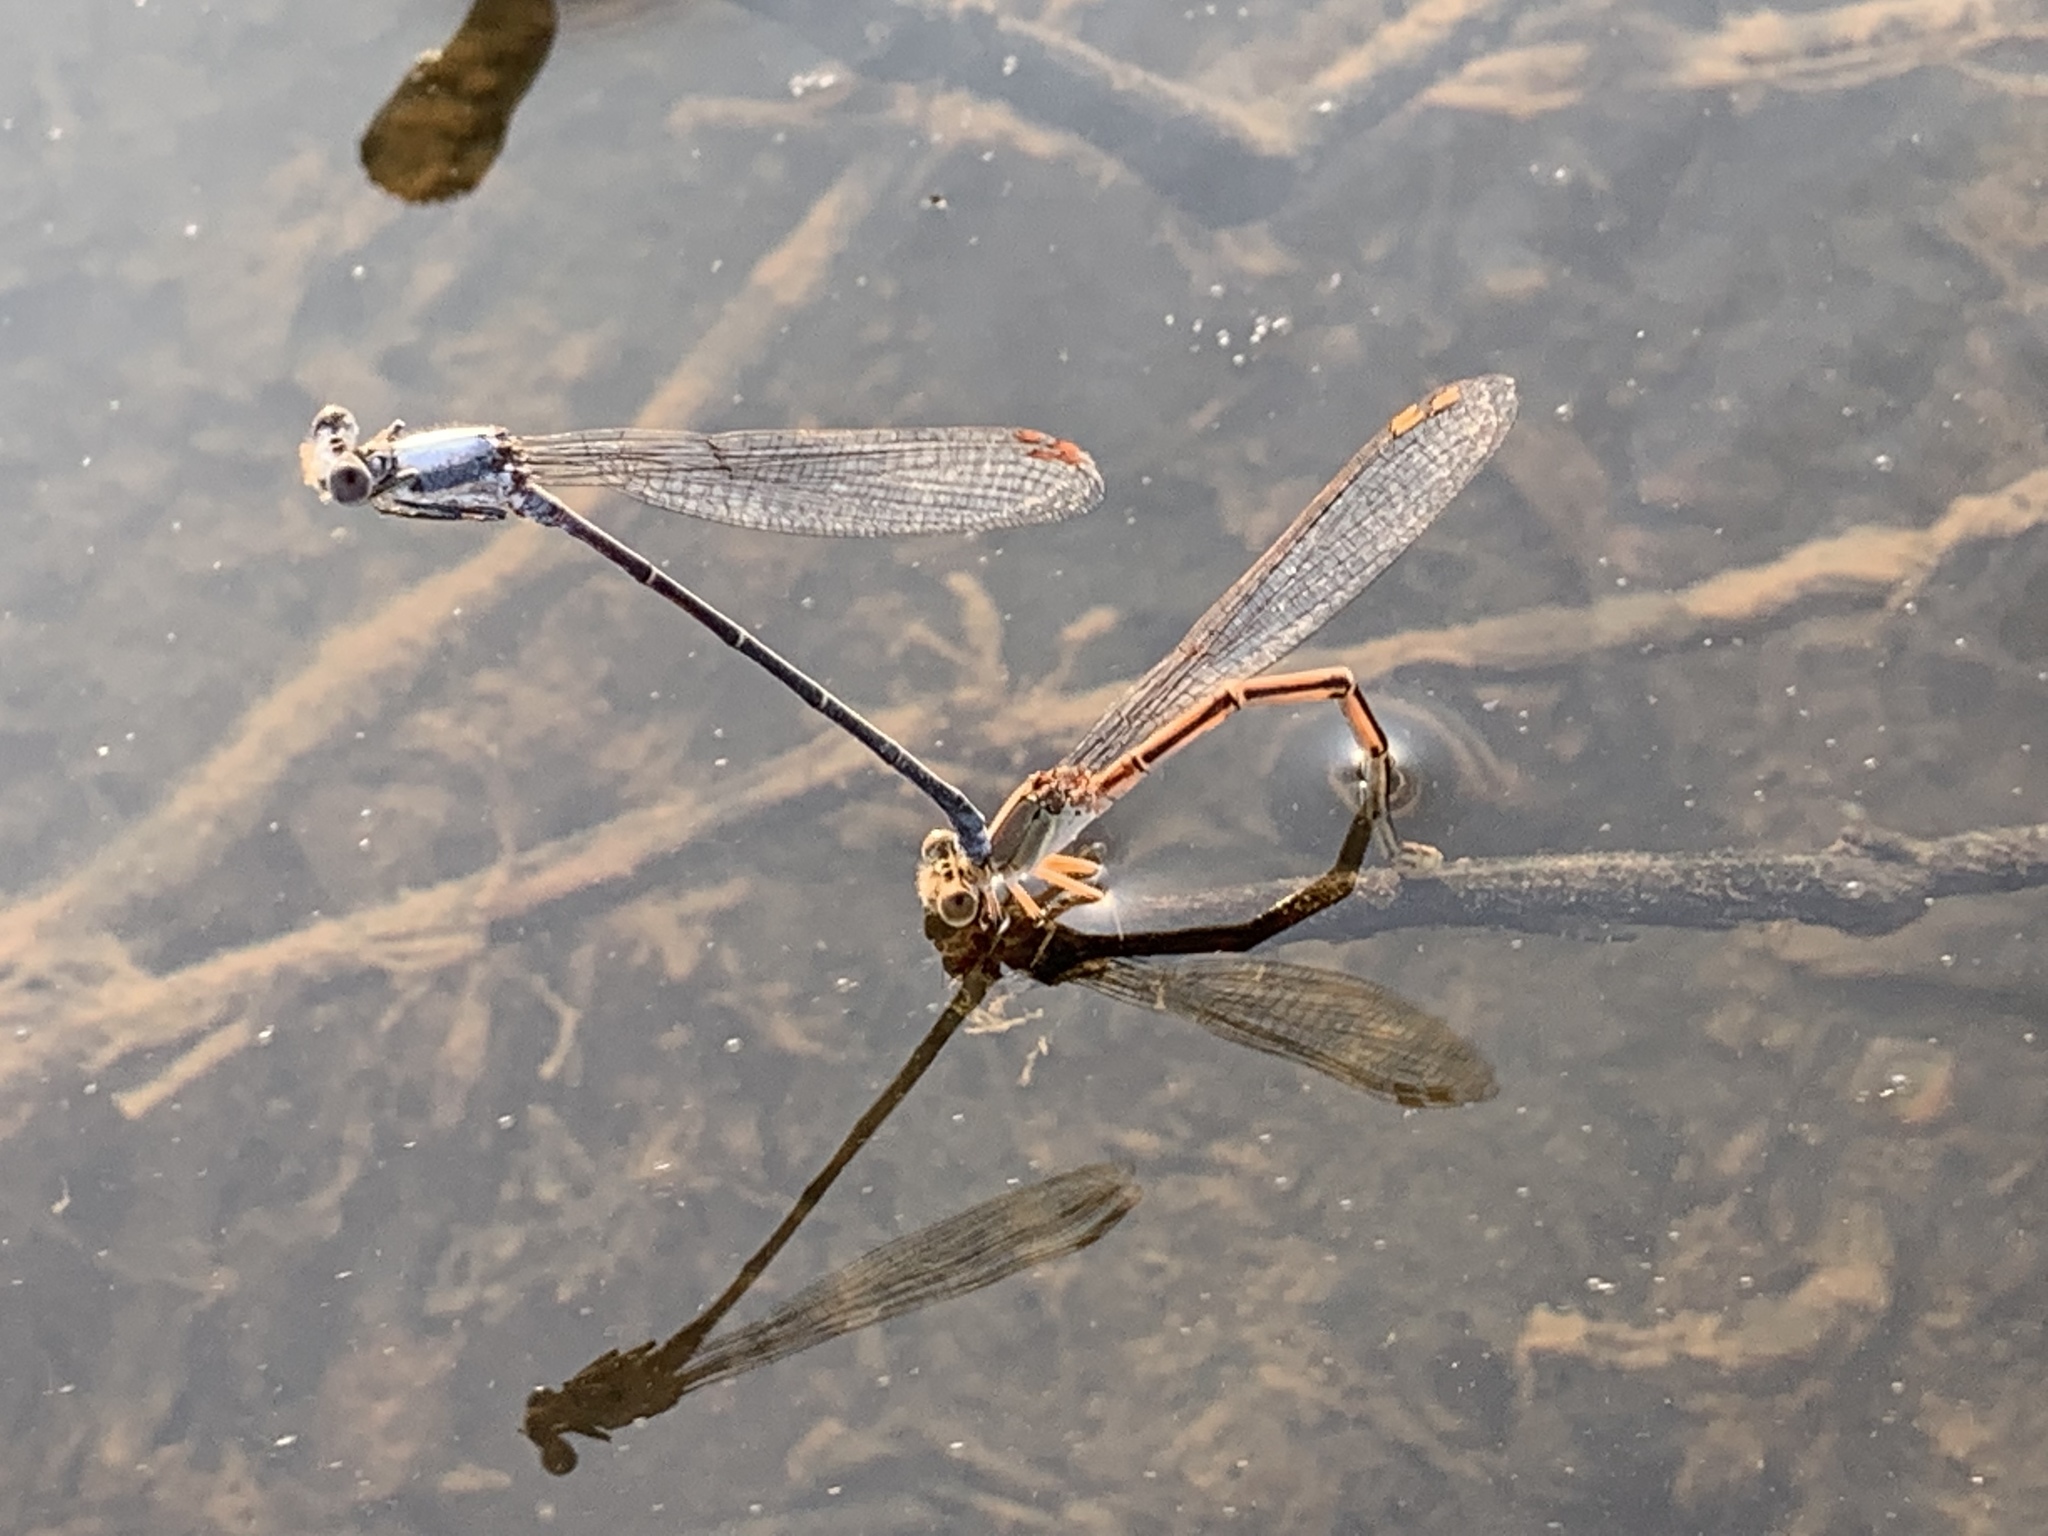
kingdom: Animalia
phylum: Arthropoda
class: Insecta
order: Odonata
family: Coenagrionidae
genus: Argia
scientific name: Argia moesta
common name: Powdered dancer
